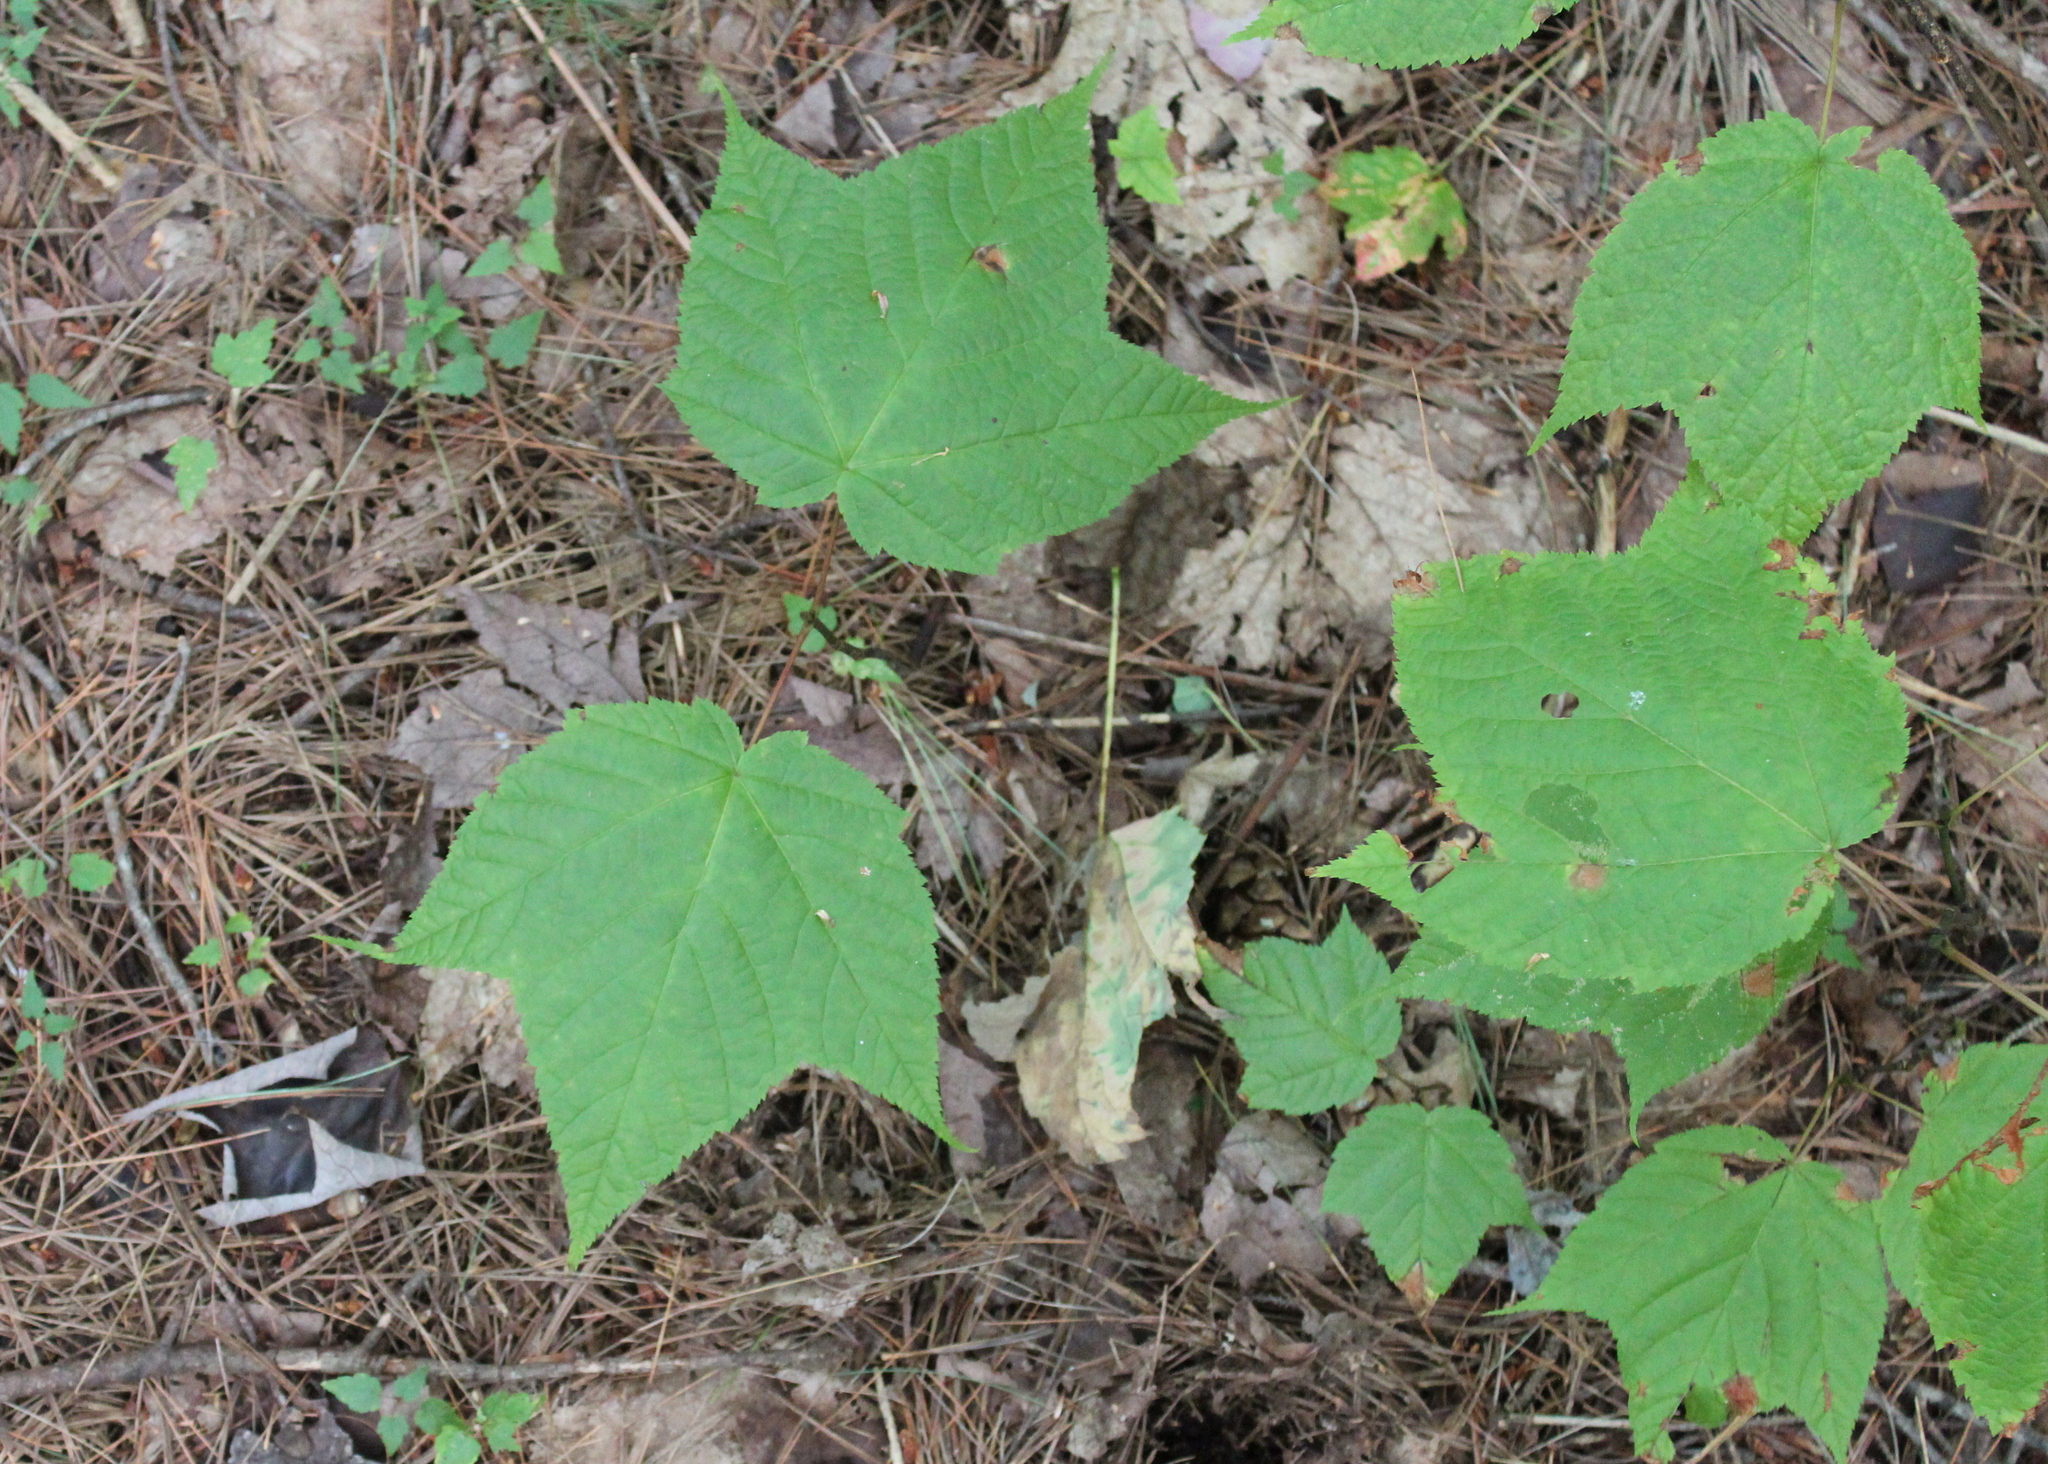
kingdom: Plantae
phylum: Tracheophyta
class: Magnoliopsida
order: Sapindales
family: Sapindaceae
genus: Acer
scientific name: Acer pensylvanicum
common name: Moosewood
